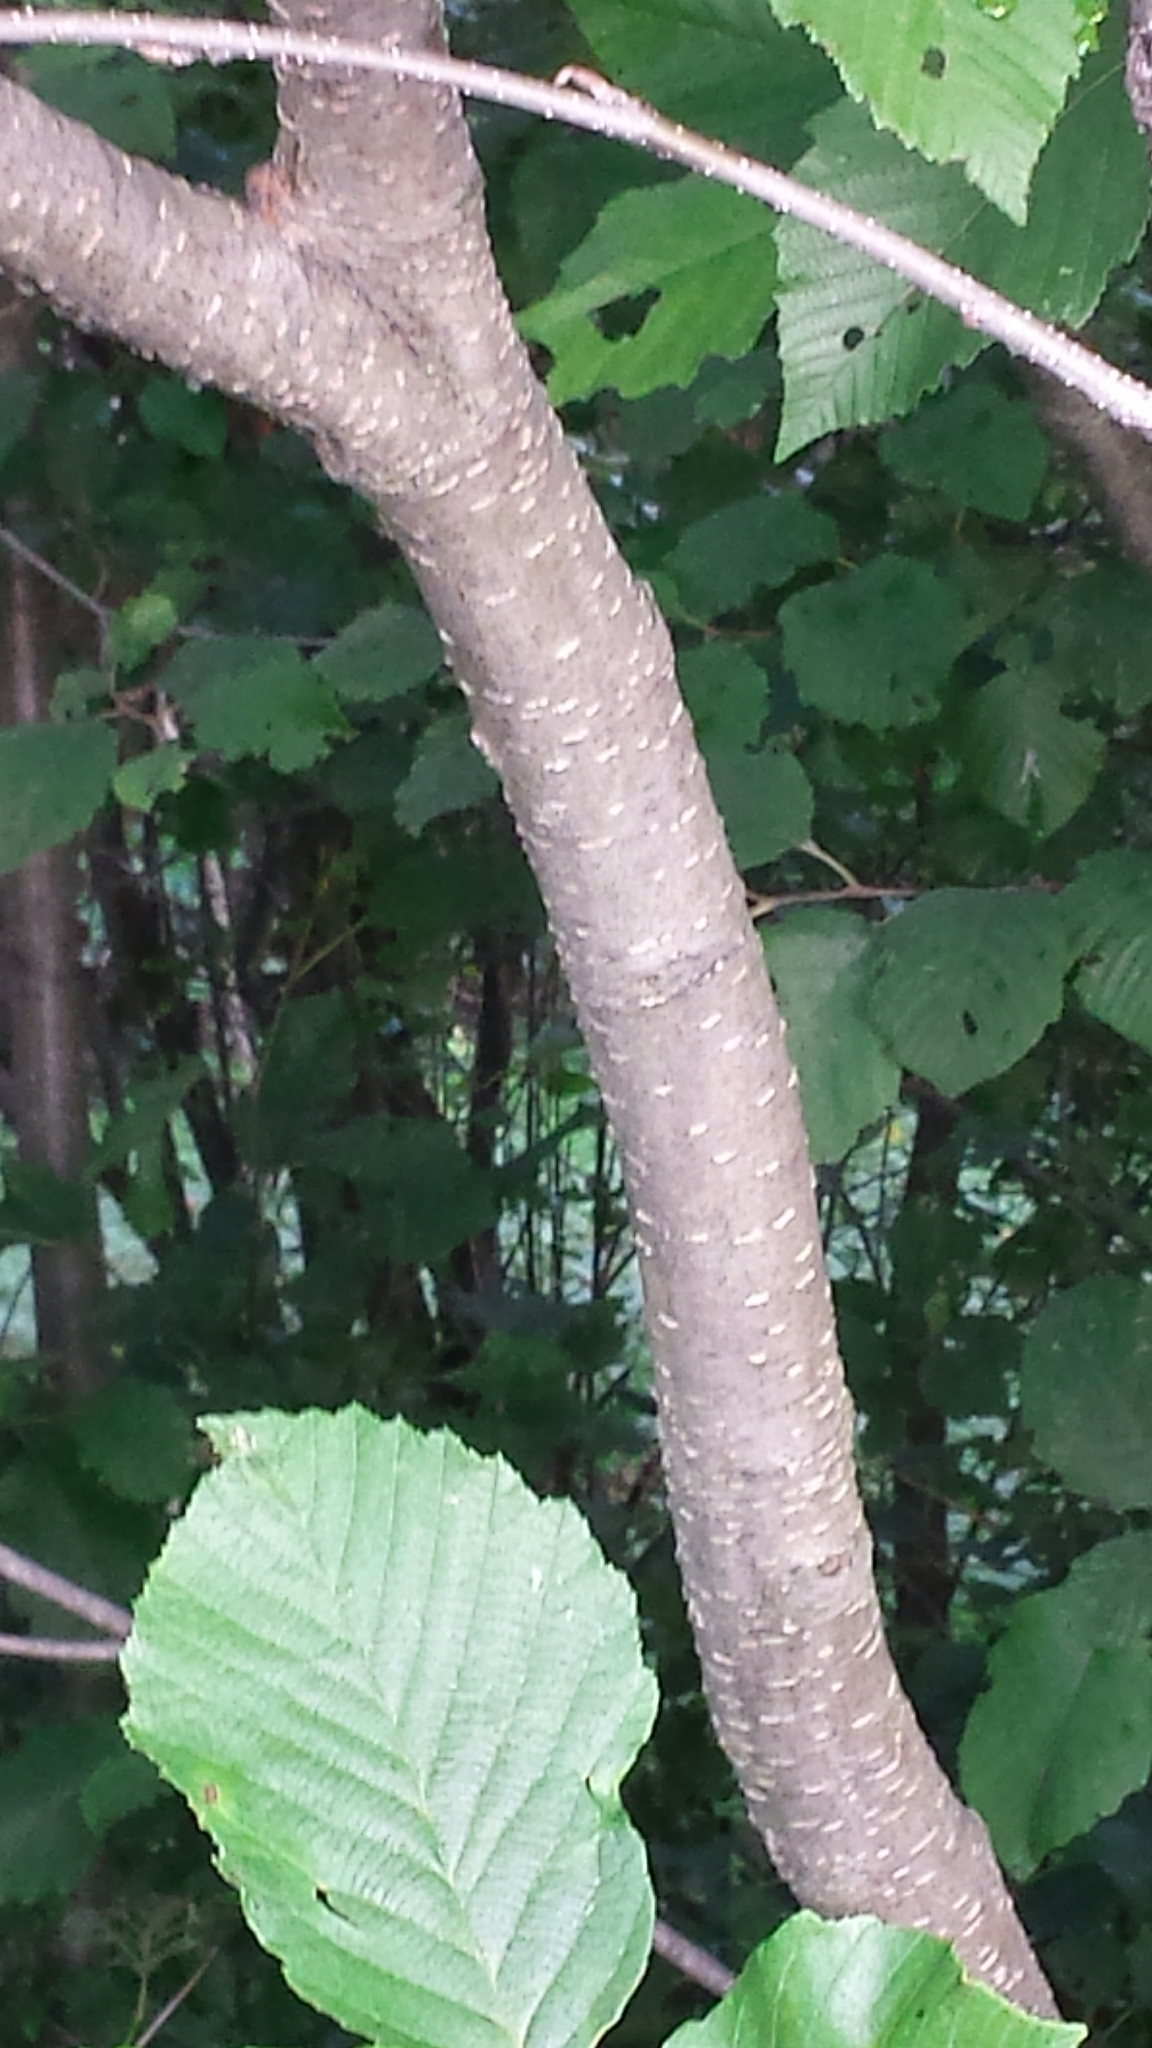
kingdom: Plantae
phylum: Tracheophyta
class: Magnoliopsida
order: Fagales
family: Betulaceae
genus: Alnus
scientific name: Alnus incana
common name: Grey alder
